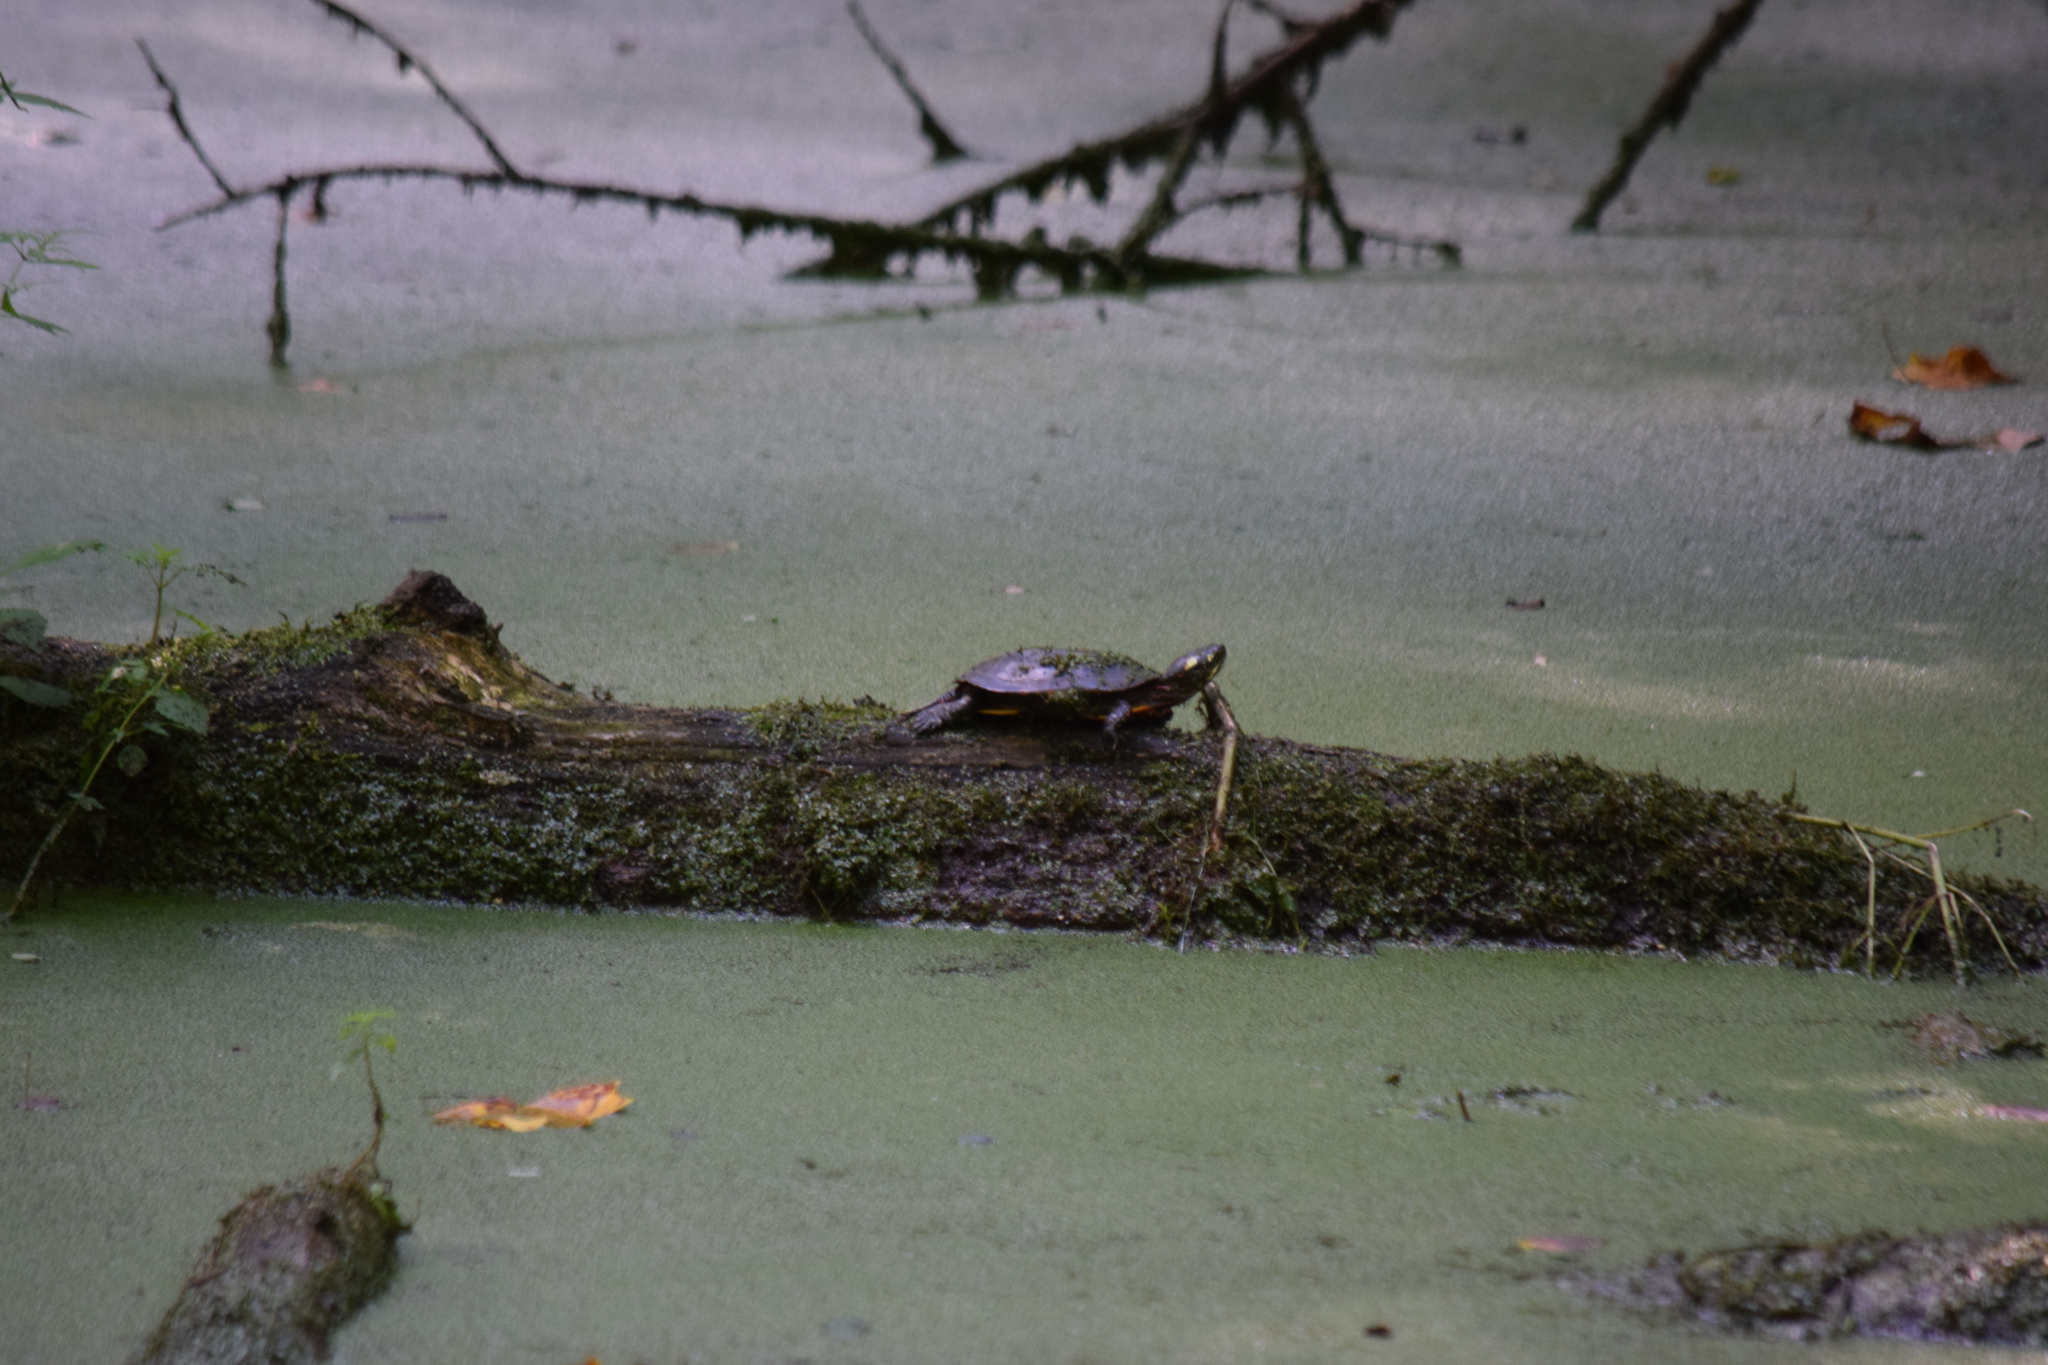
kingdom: Animalia
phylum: Chordata
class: Testudines
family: Emydidae
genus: Chrysemys
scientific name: Chrysemys picta
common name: Painted turtle
